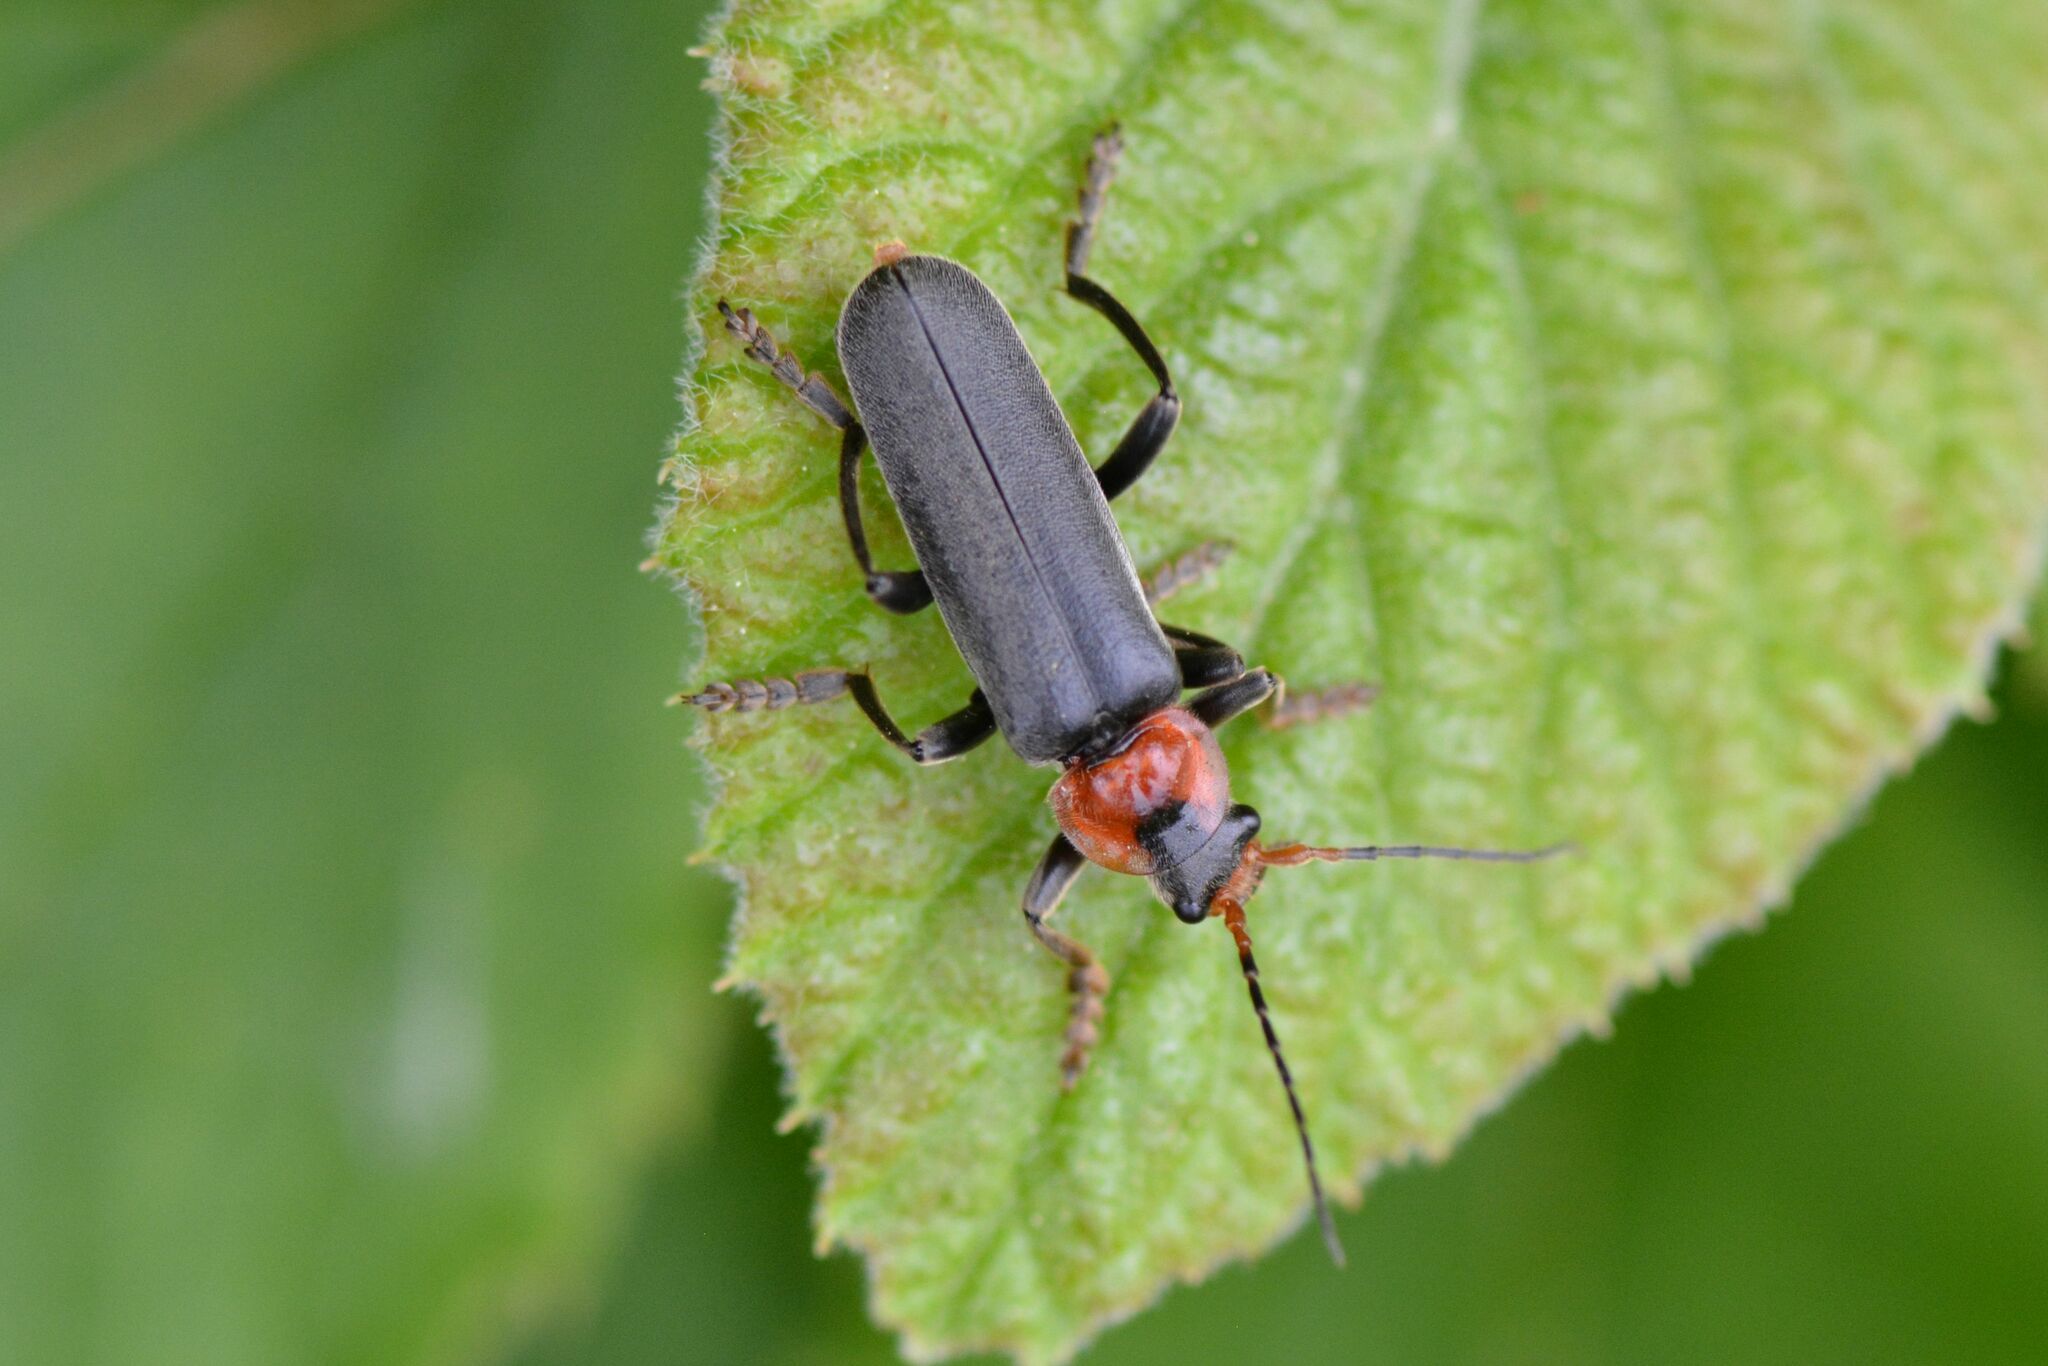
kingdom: Animalia
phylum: Arthropoda
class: Insecta
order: Coleoptera
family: Cantharidae
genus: Cantharis
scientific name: Cantharis fusca
